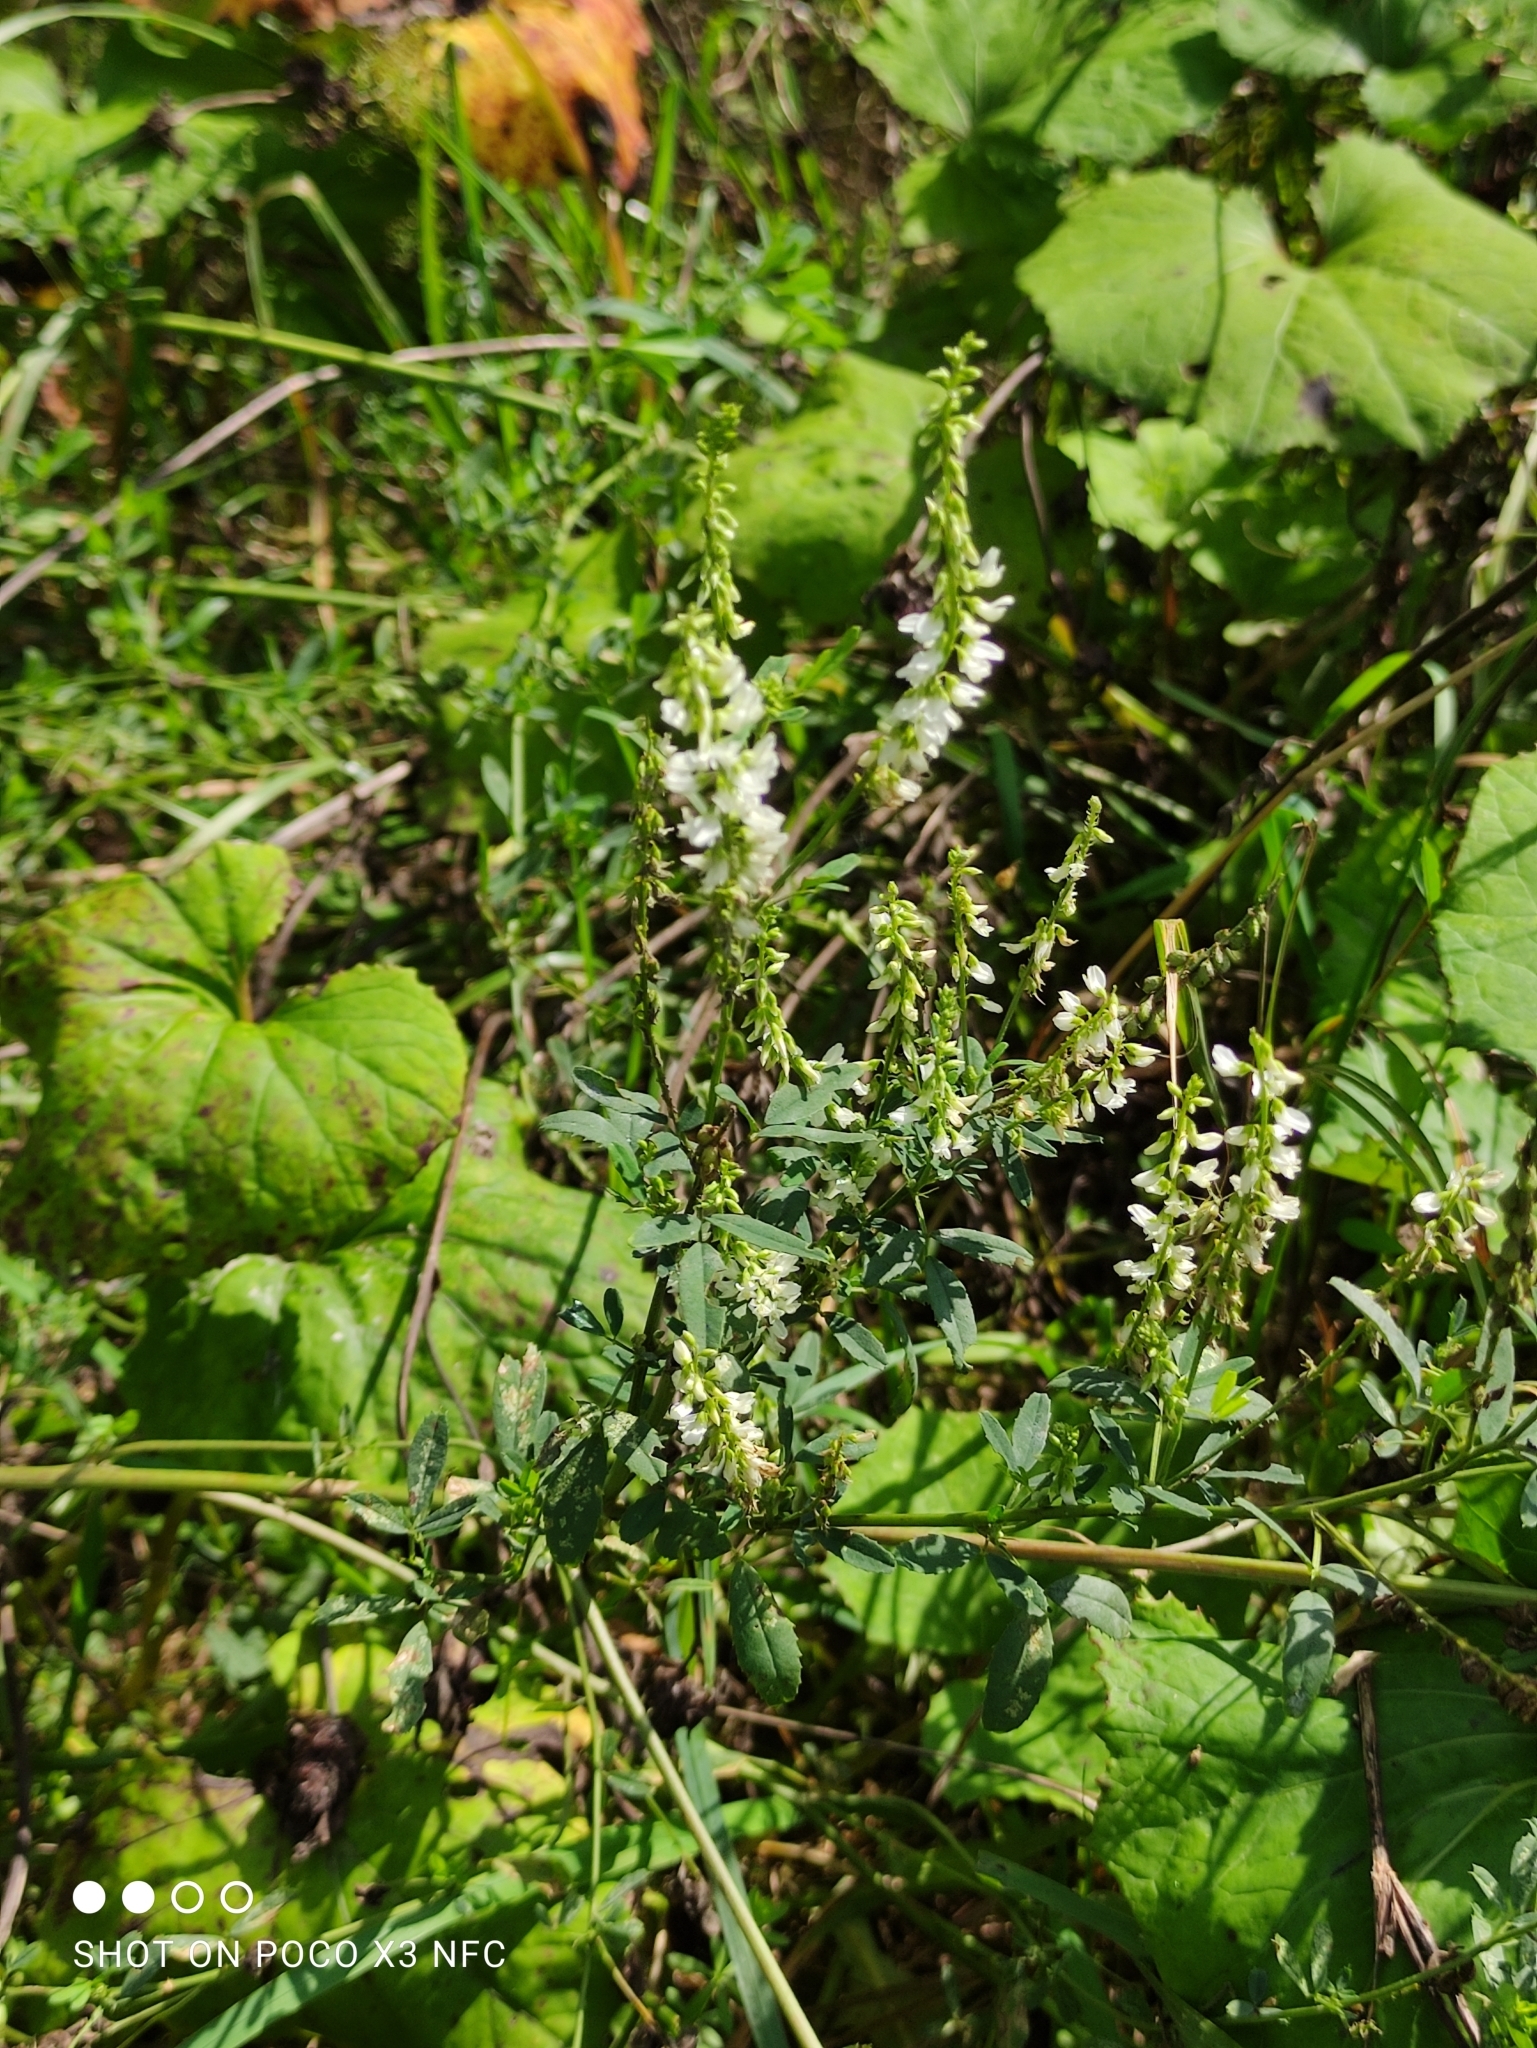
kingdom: Plantae
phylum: Tracheophyta
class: Magnoliopsida
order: Fabales
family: Fabaceae
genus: Melilotus
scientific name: Melilotus albus
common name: White melilot
